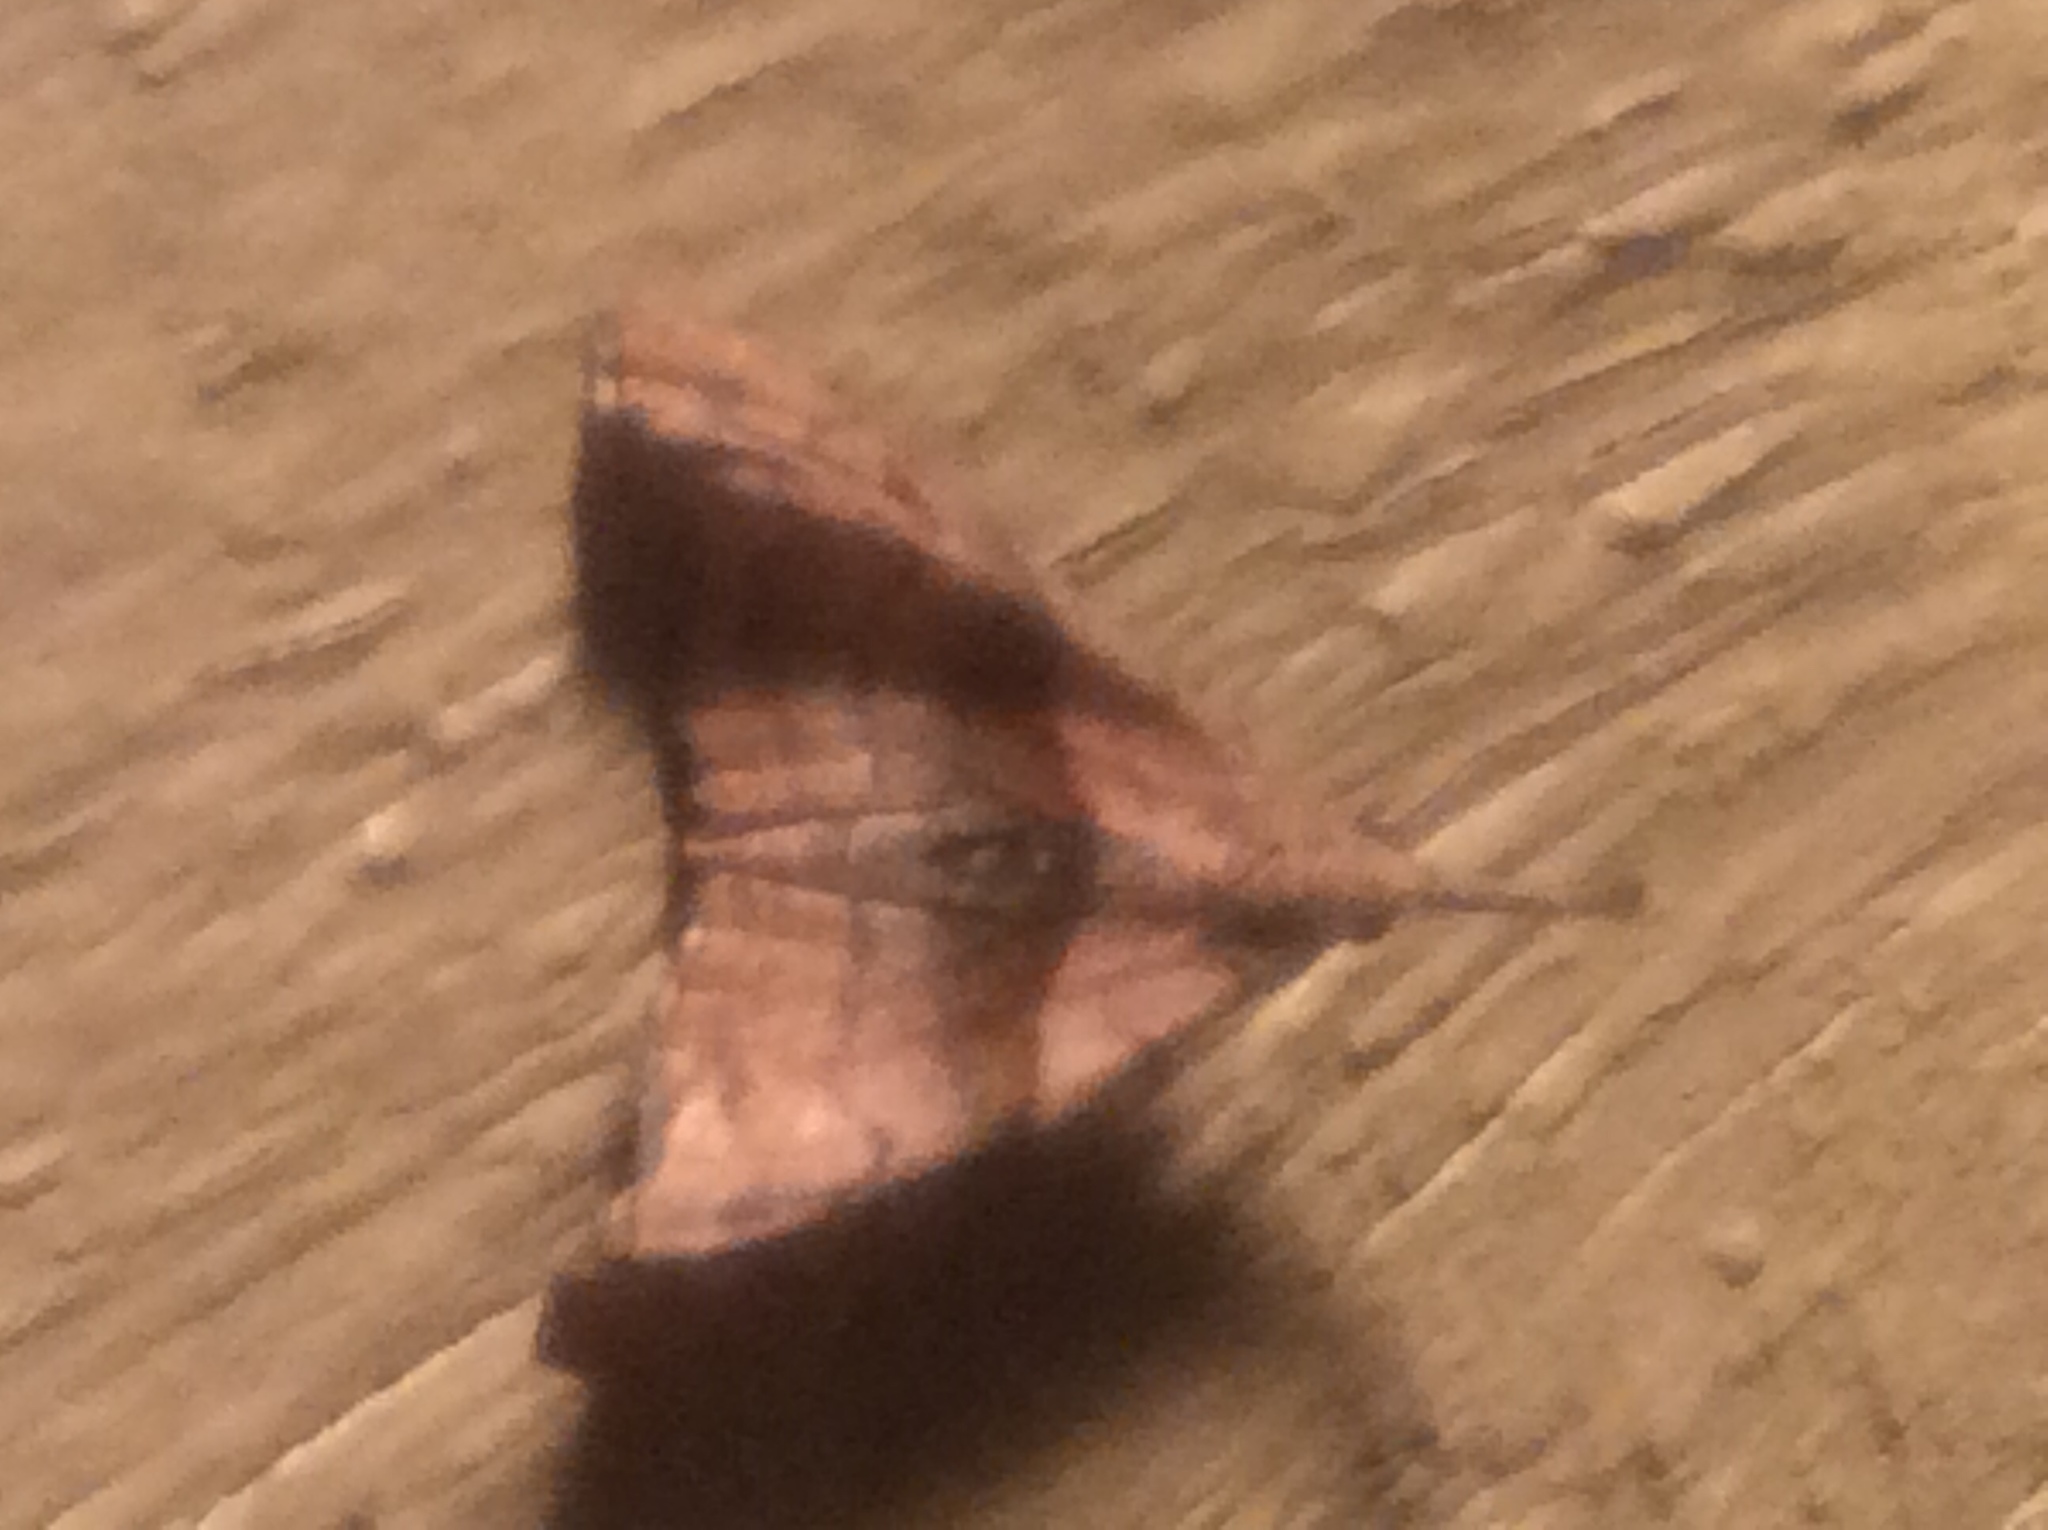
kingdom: Animalia
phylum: Arthropoda
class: Insecta
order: Lepidoptera
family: Erebidae
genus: Palthis
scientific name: Palthis angulalis
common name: Dark-spotted palthis moth
